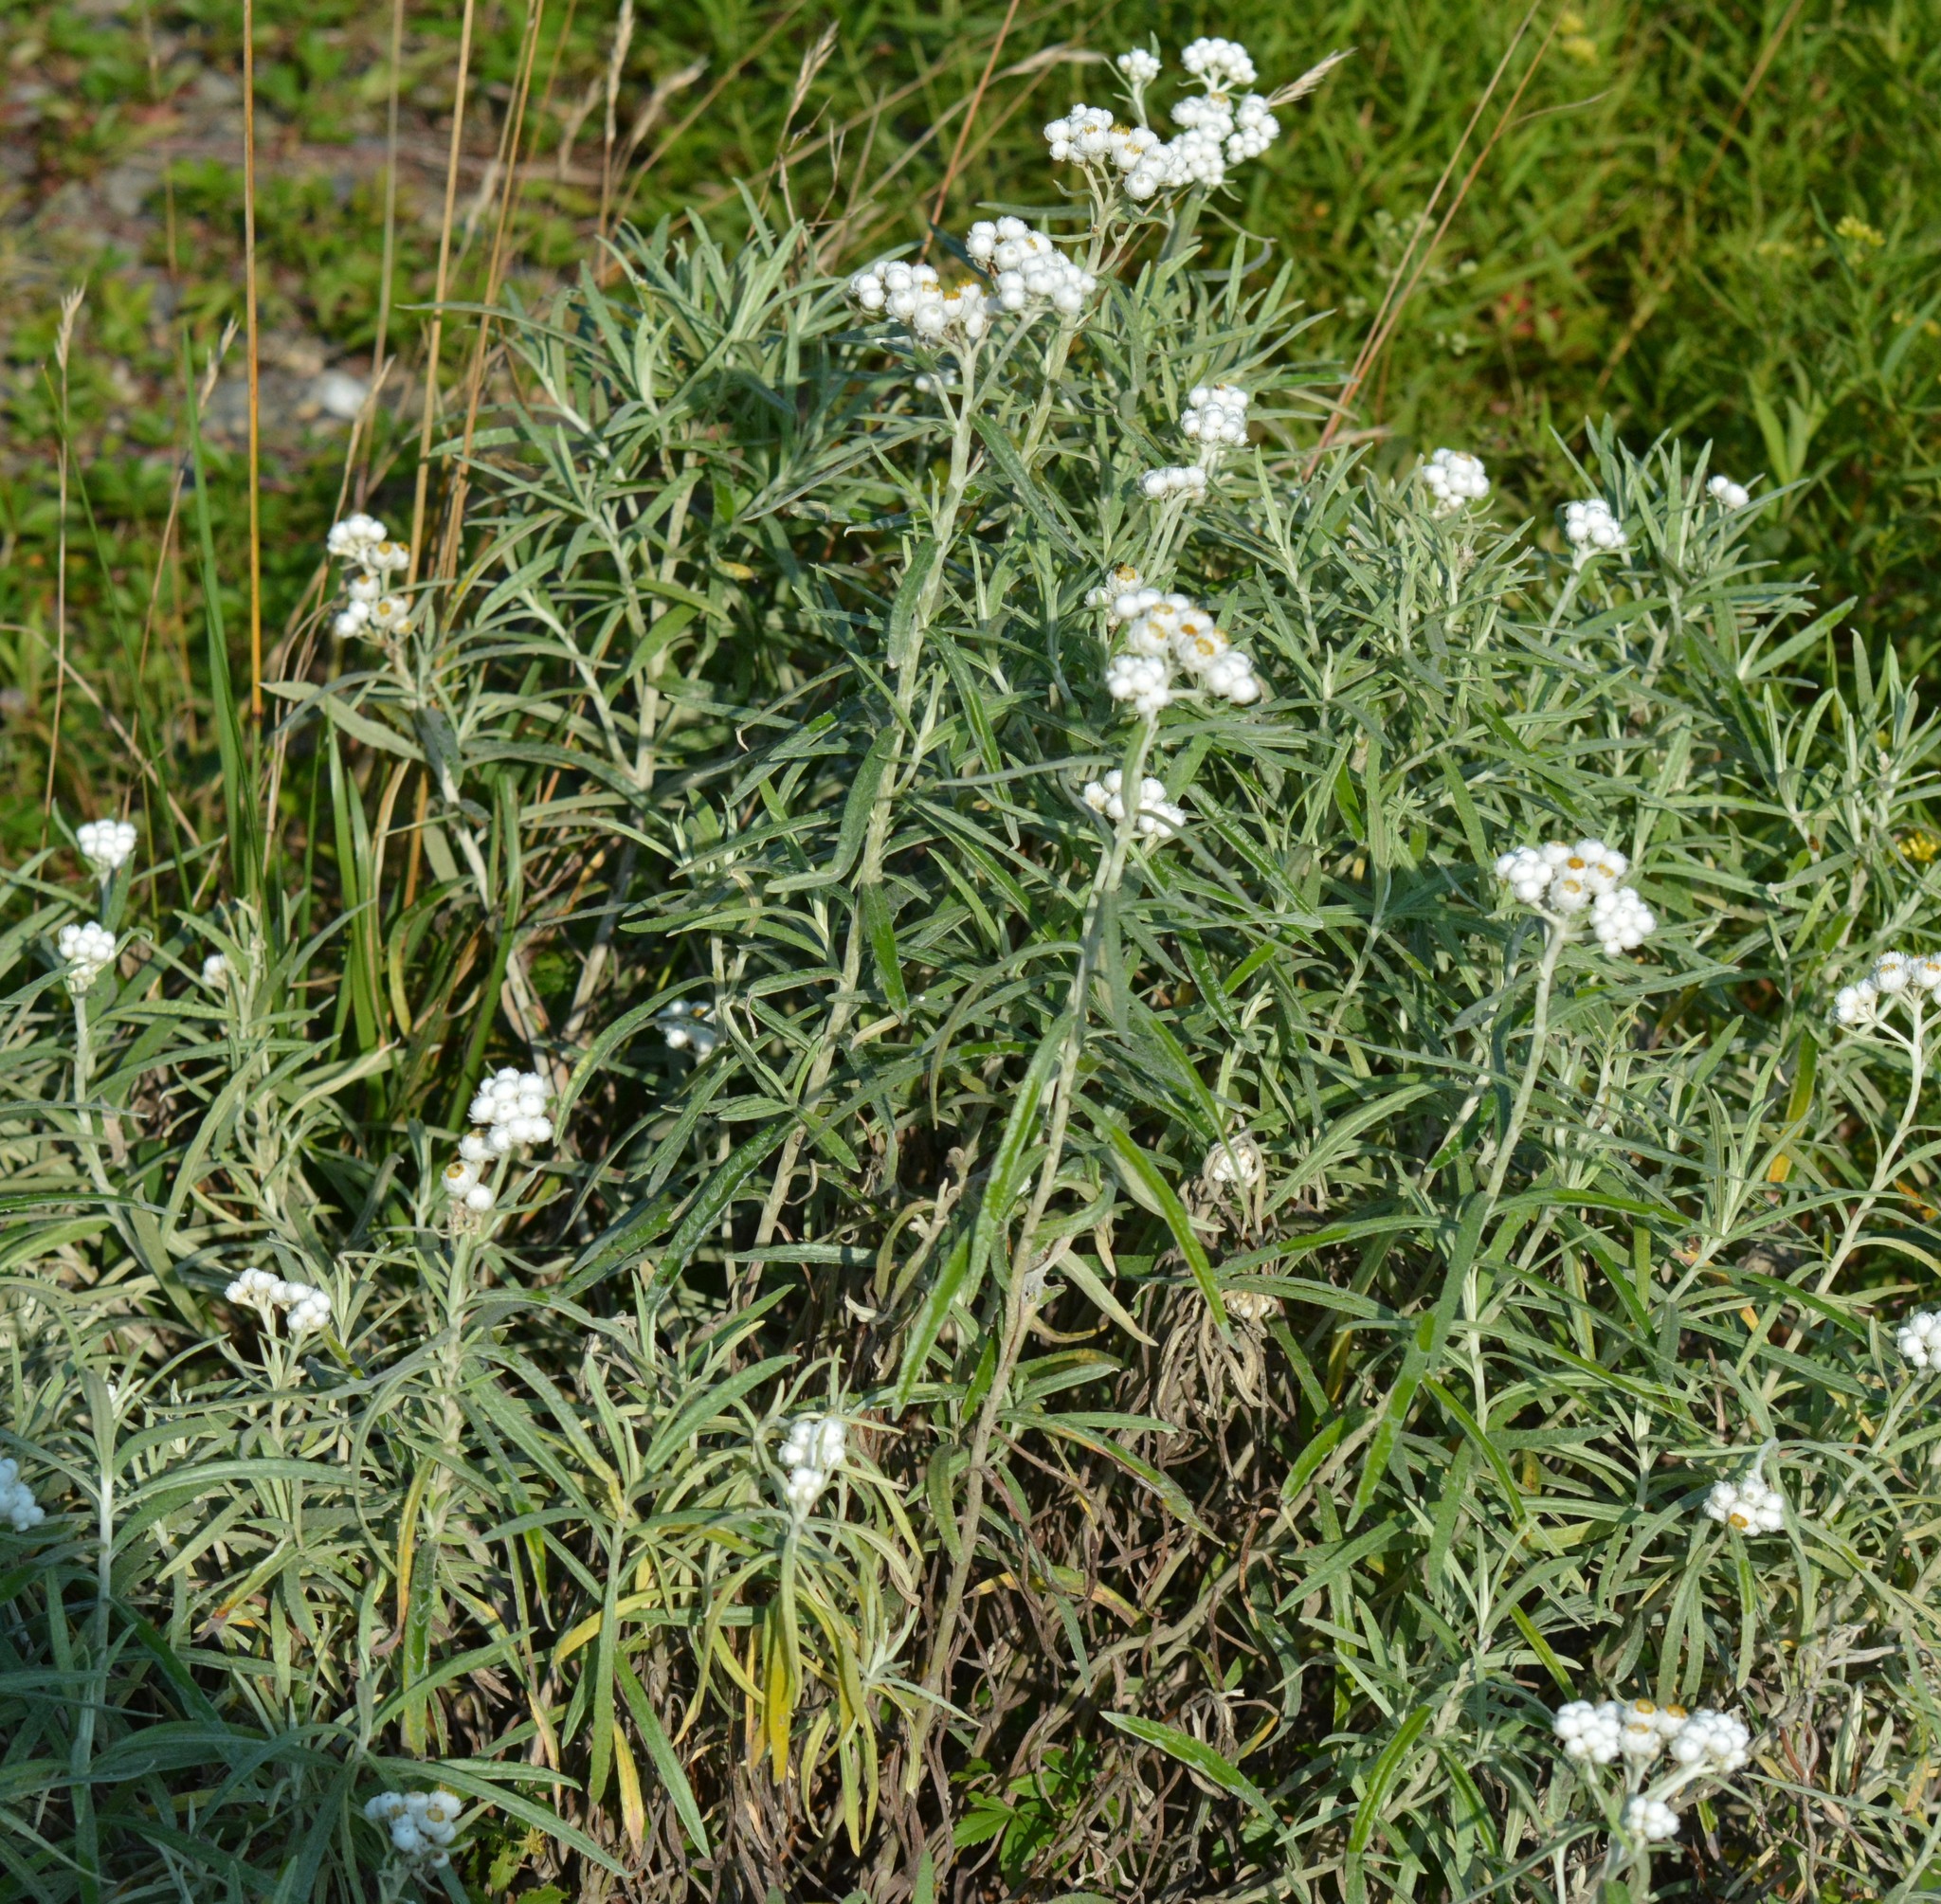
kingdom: Plantae
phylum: Tracheophyta
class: Magnoliopsida
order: Asterales
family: Asteraceae
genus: Anaphalis
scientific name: Anaphalis margaritacea
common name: Pearly everlasting
